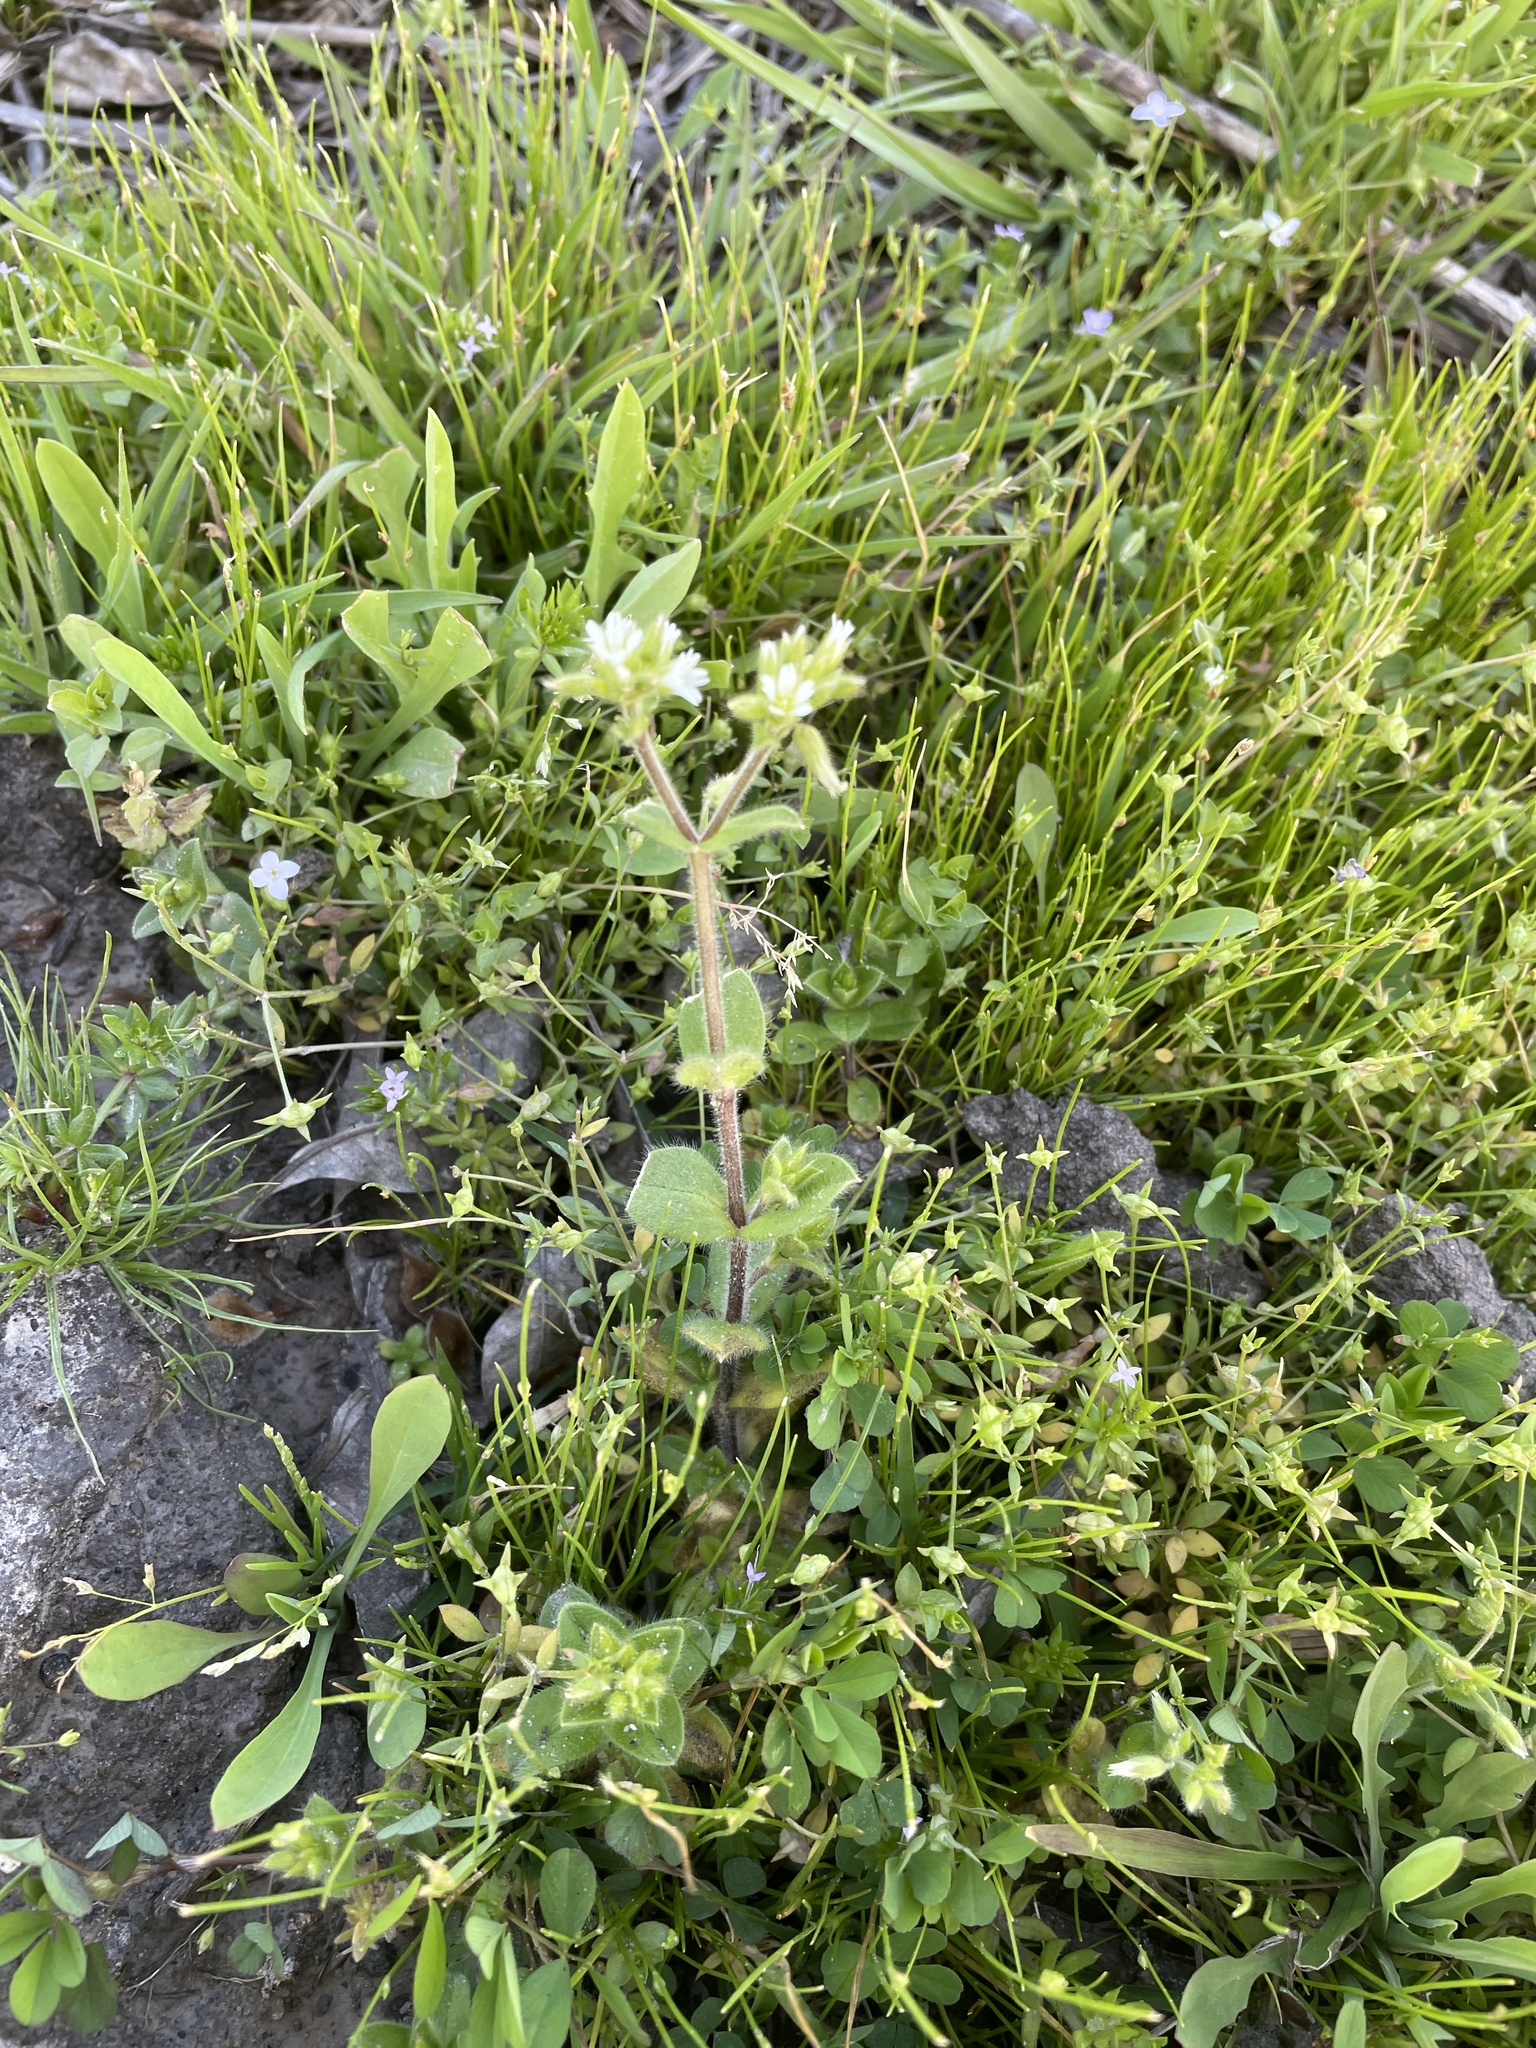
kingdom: Plantae
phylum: Tracheophyta
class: Magnoliopsida
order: Caryophyllales
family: Caryophyllaceae
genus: Cerastium
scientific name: Cerastium glomeratum
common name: Sticky chickweed
